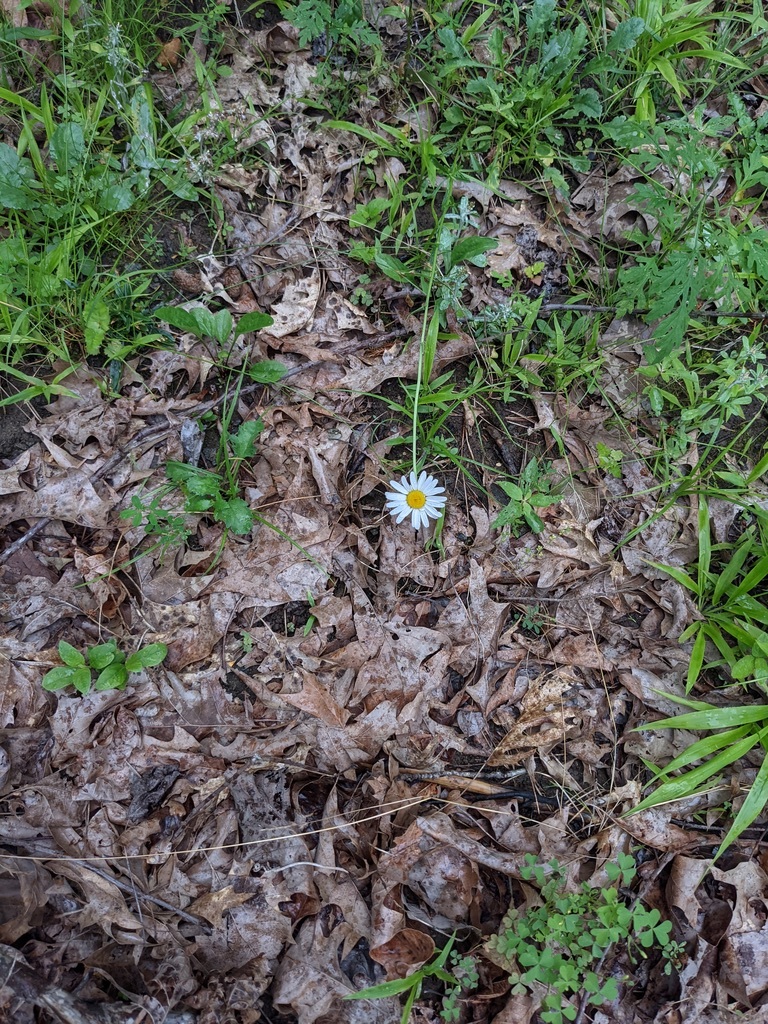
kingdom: Plantae
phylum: Tracheophyta
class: Magnoliopsida
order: Asterales
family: Asteraceae
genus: Leucanthemum
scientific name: Leucanthemum vulgare
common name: Oxeye daisy
